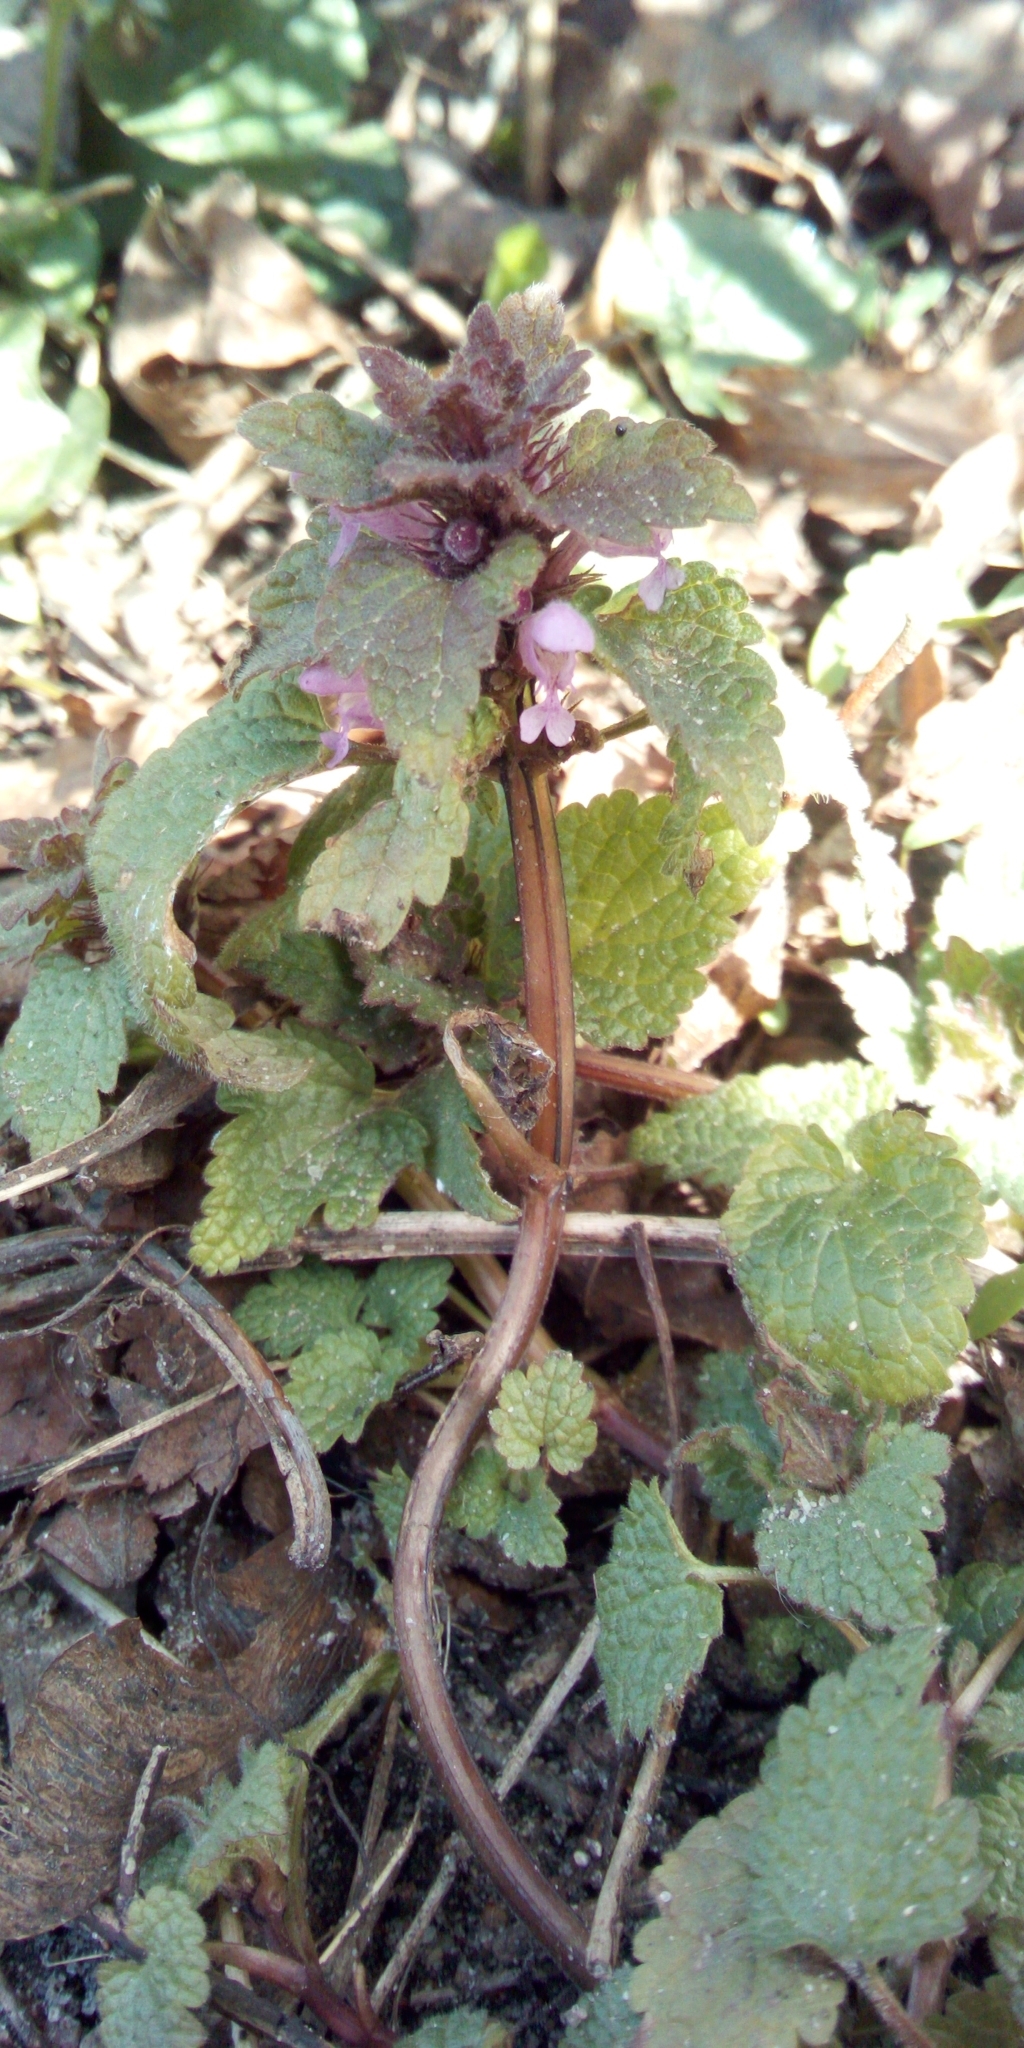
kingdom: Plantae
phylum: Tracheophyta
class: Magnoliopsida
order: Lamiales
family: Lamiaceae
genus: Lamium
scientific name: Lamium purpureum
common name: Red dead-nettle
